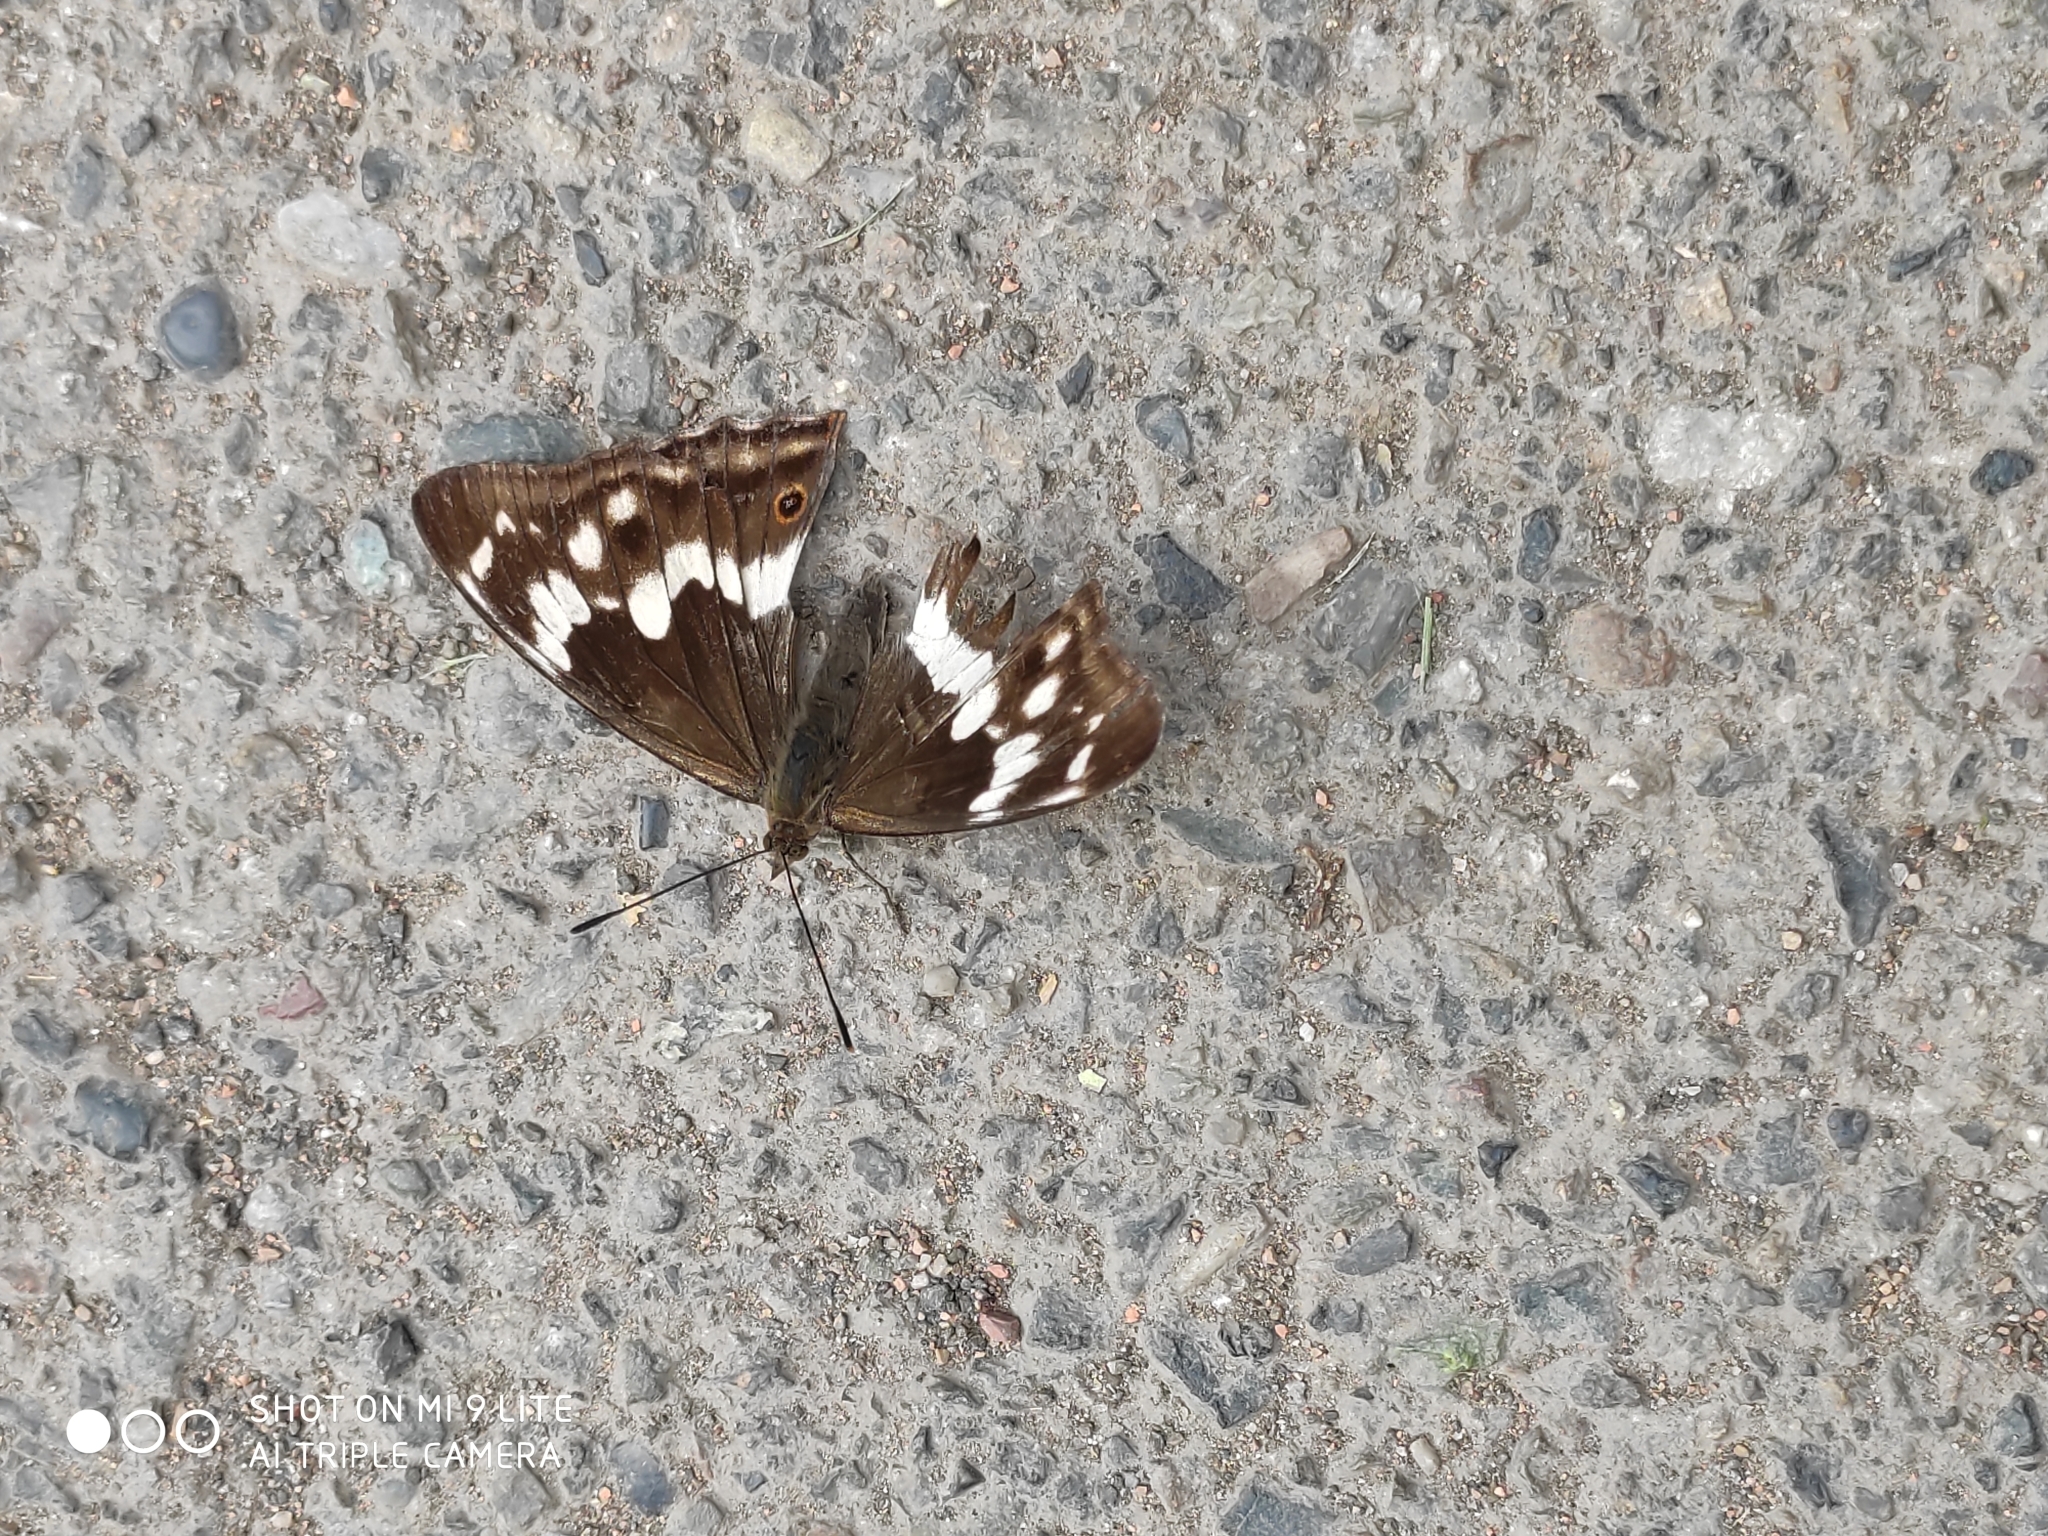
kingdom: Animalia
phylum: Arthropoda
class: Insecta
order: Lepidoptera
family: Nymphalidae
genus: Apatura
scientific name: Apatura iris
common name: Purple emperor
